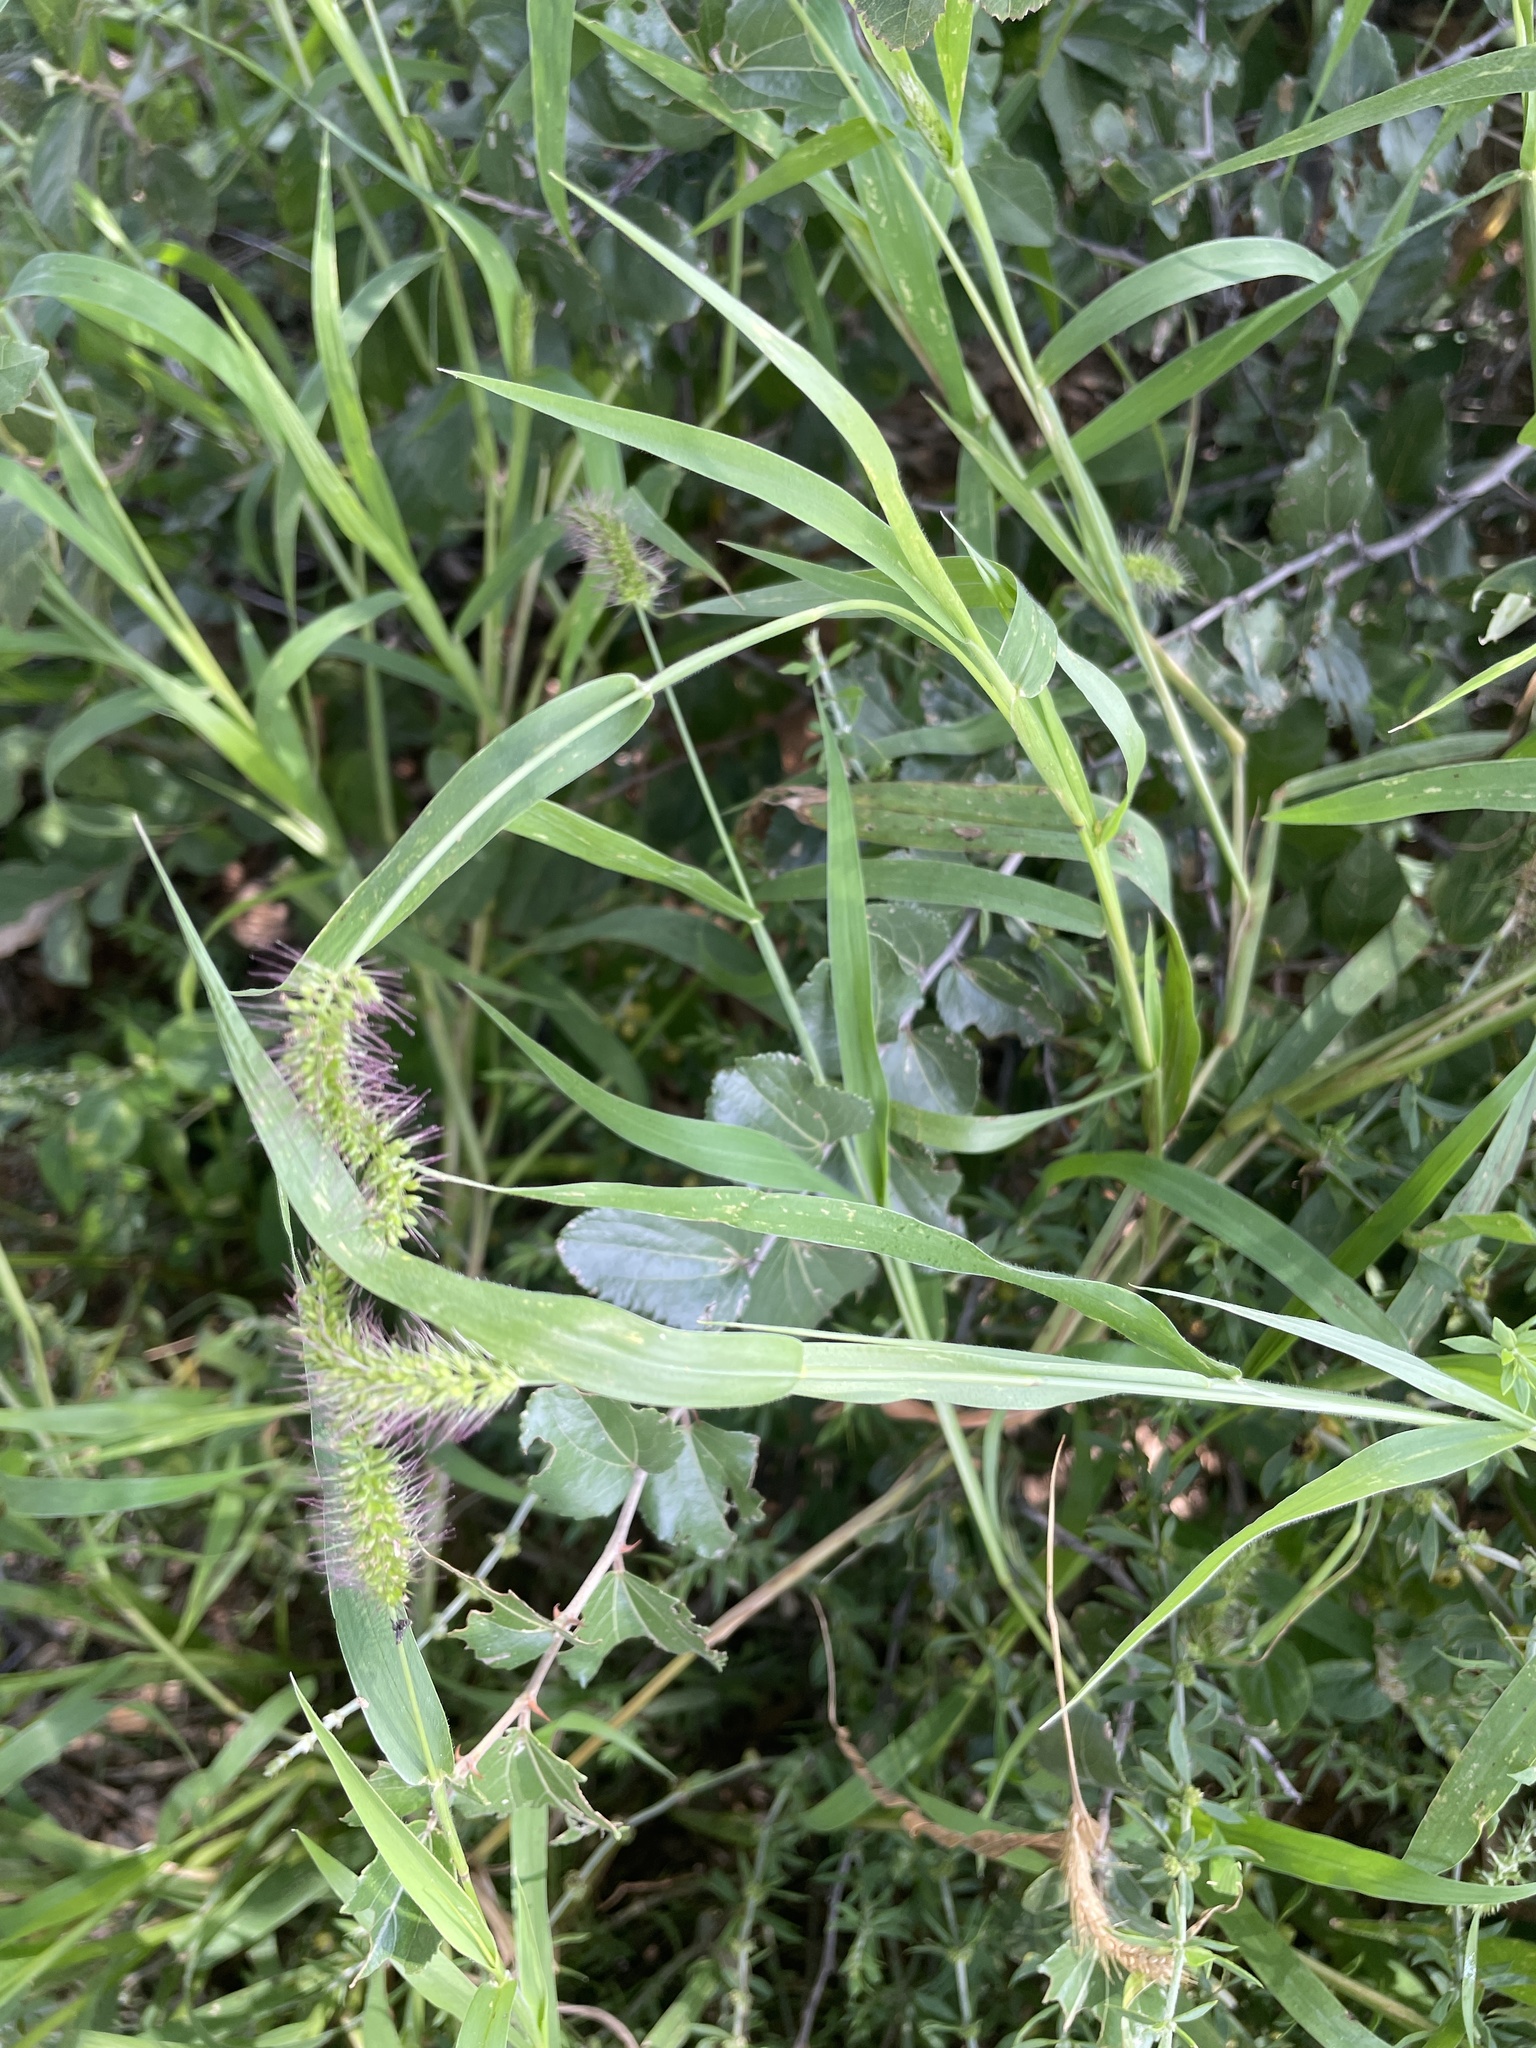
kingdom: Plantae
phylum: Tracheophyta
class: Liliopsida
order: Poales
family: Poaceae
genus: Setaria
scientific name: Setaria verticillata
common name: Hooked bristlegrass
